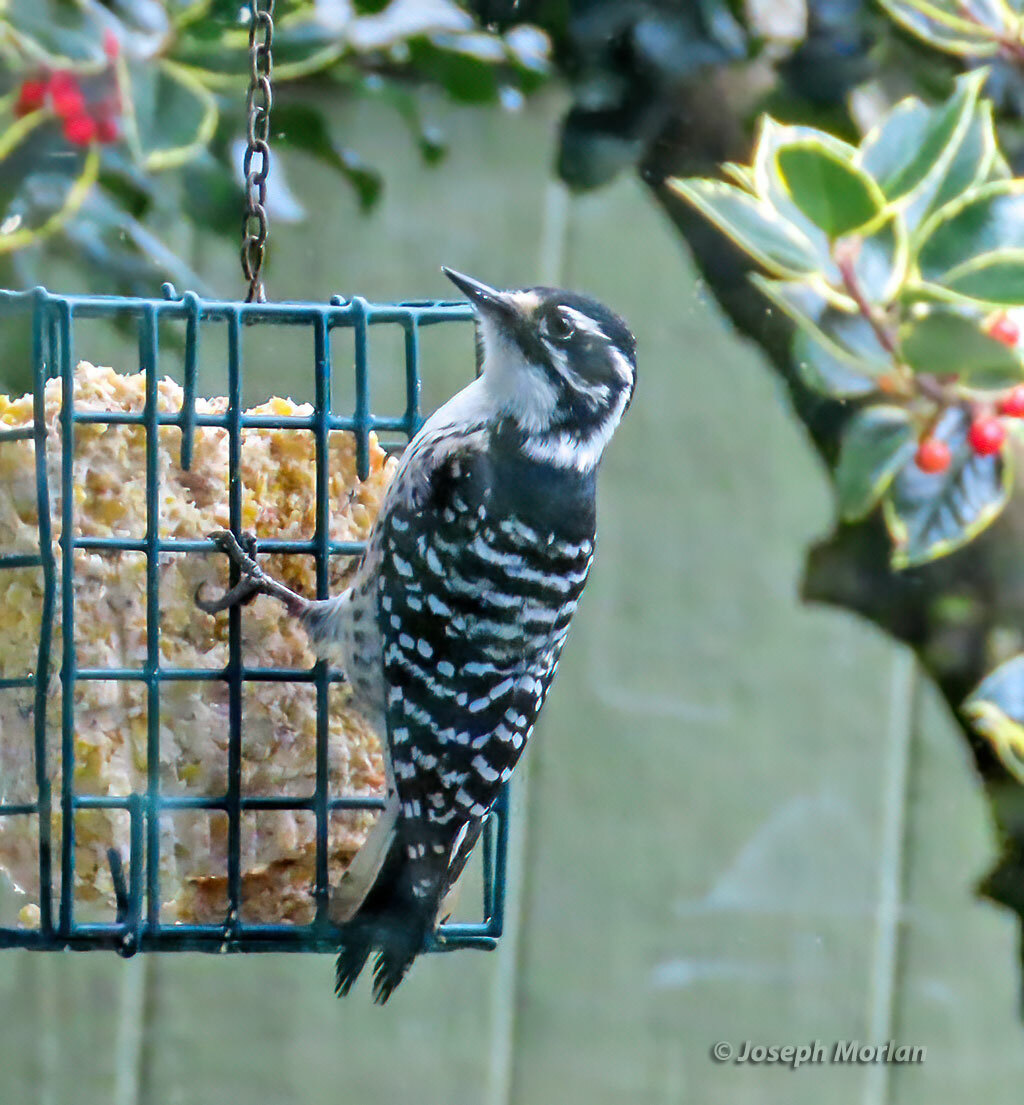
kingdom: Animalia
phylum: Chordata
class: Aves
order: Piciformes
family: Picidae
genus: Dryobates
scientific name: Dryobates nuttallii
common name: Nuttall's woodpecker
